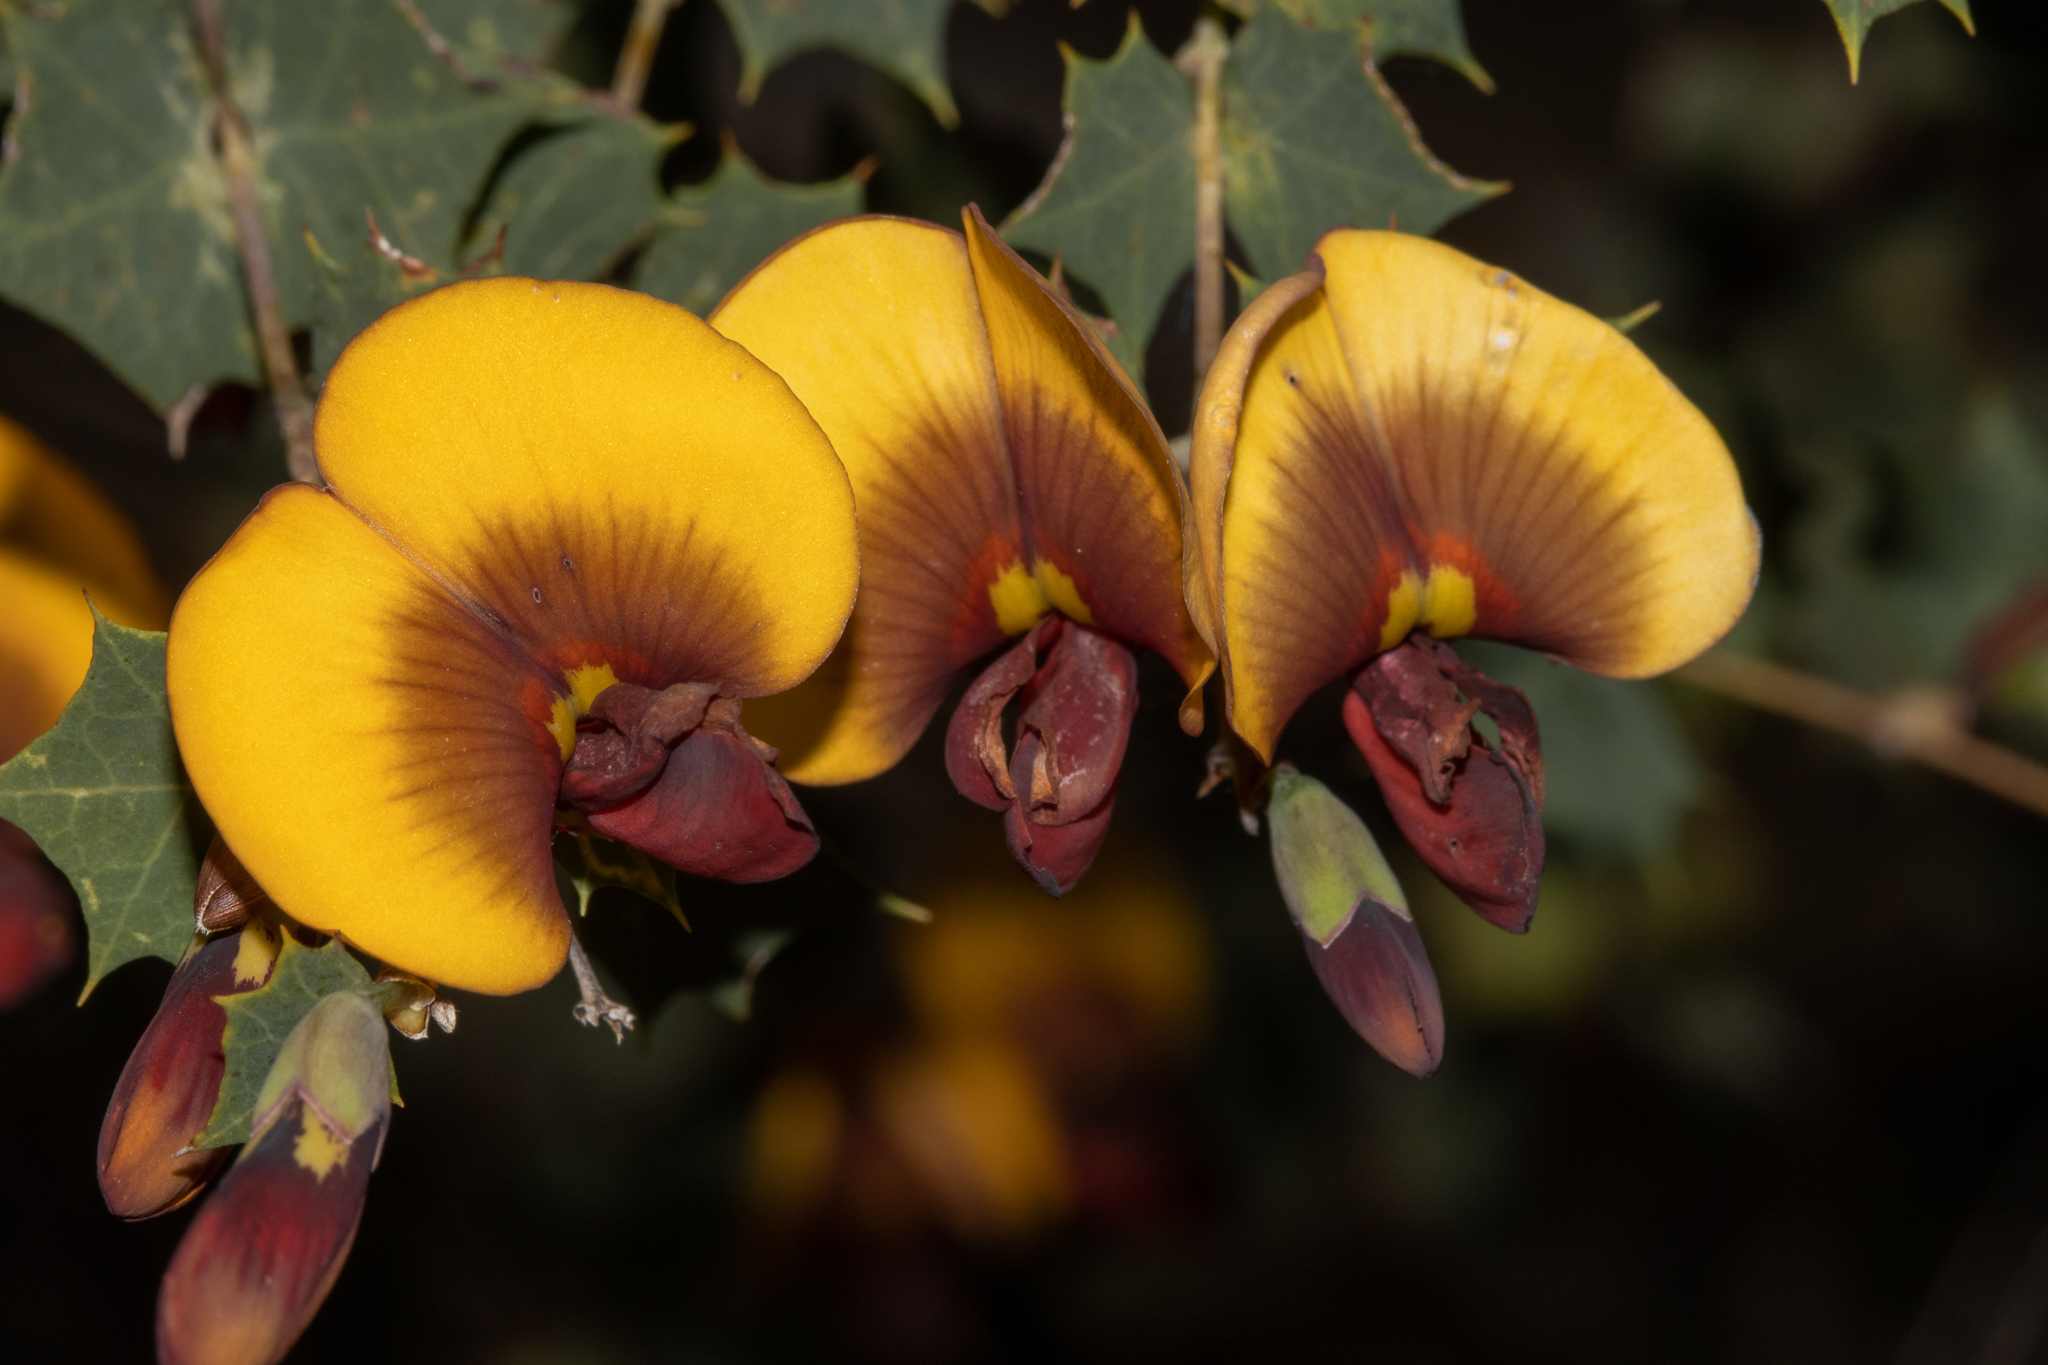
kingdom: Plantae
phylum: Tracheophyta
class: Magnoliopsida
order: Fabales
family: Fabaceae
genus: Bossiaea
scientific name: Bossiaea aquifolium
